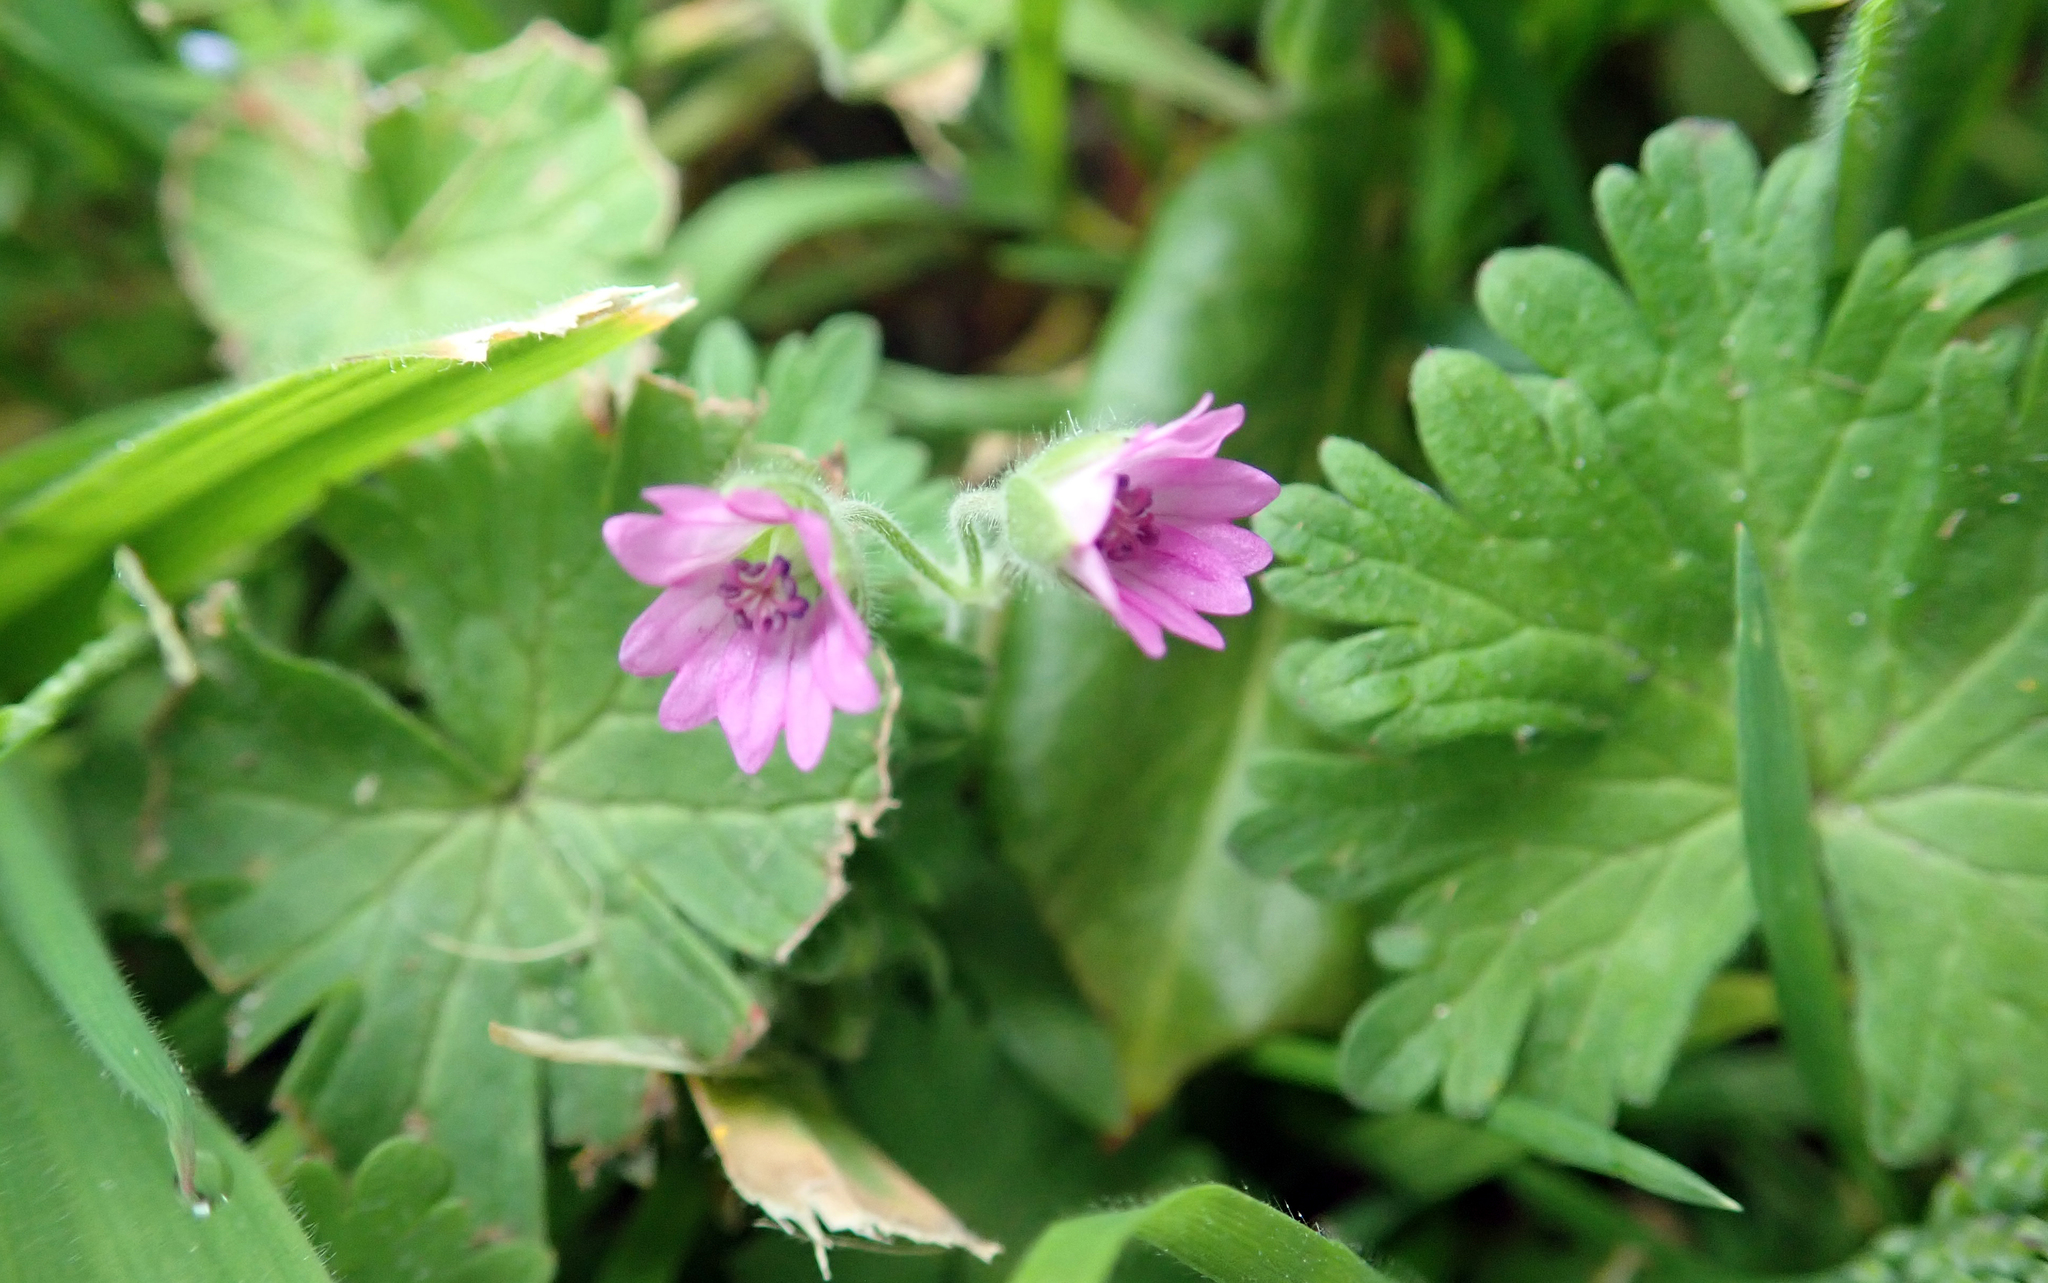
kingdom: Plantae
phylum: Tracheophyta
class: Magnoliopsida
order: Geraniales
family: Geraniaceae
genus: Geranium
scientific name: Geranium molle
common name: Dove's-foot crane's-bill
